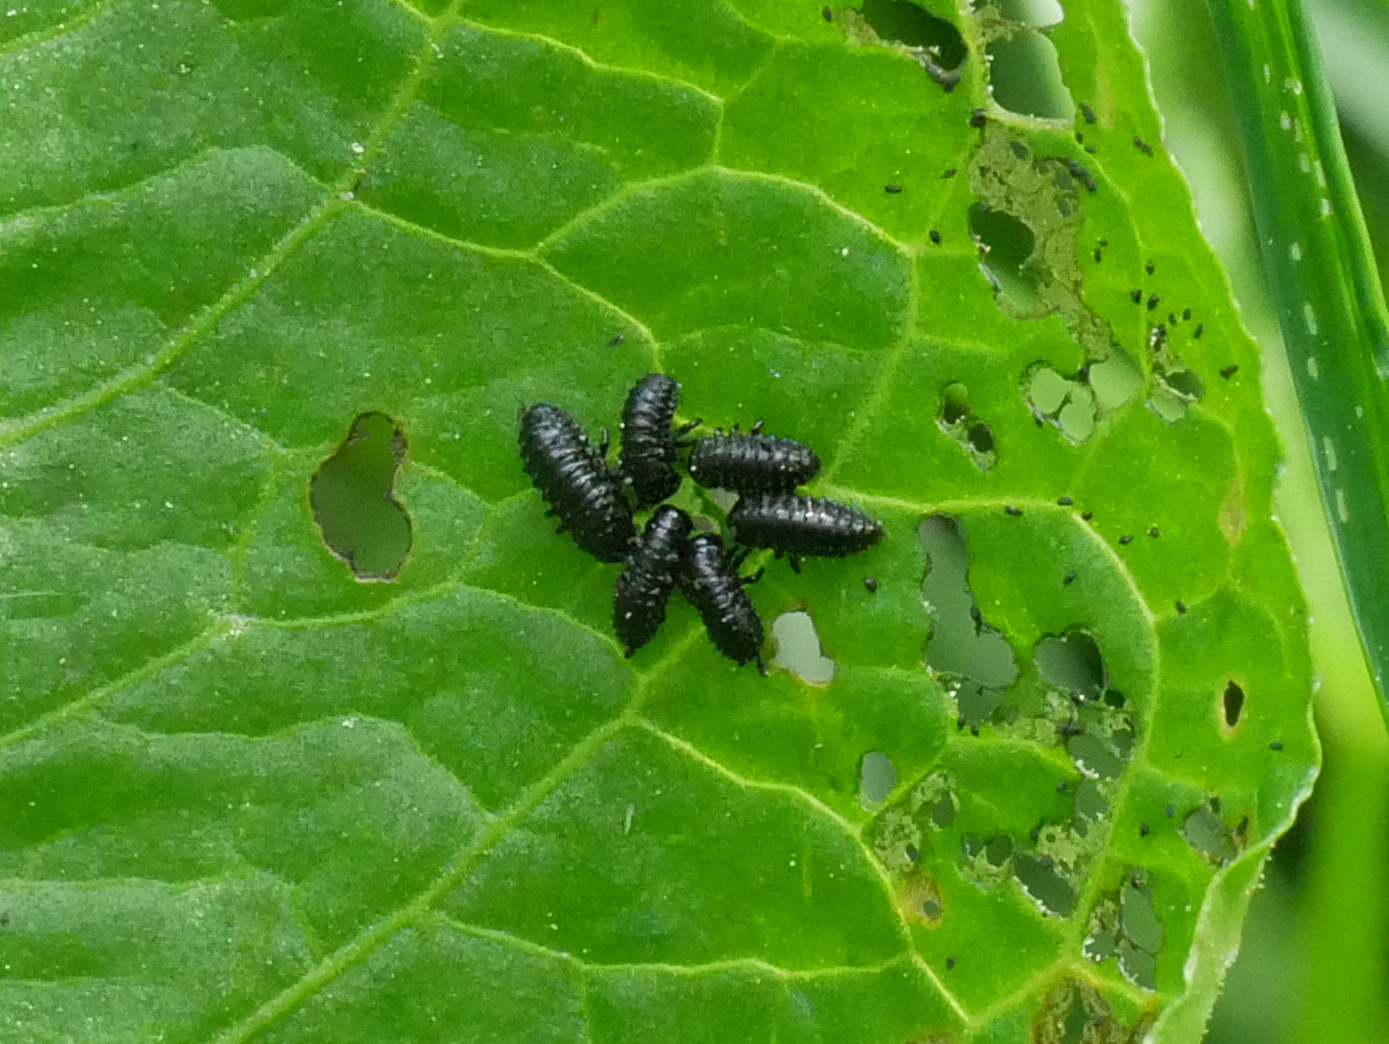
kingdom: Animalia
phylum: Arthropoda
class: Insecta
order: Coleoptera
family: Chrysomelidae
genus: Gastrophysa
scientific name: Gastrophysa viridula
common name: Green dock beetle
